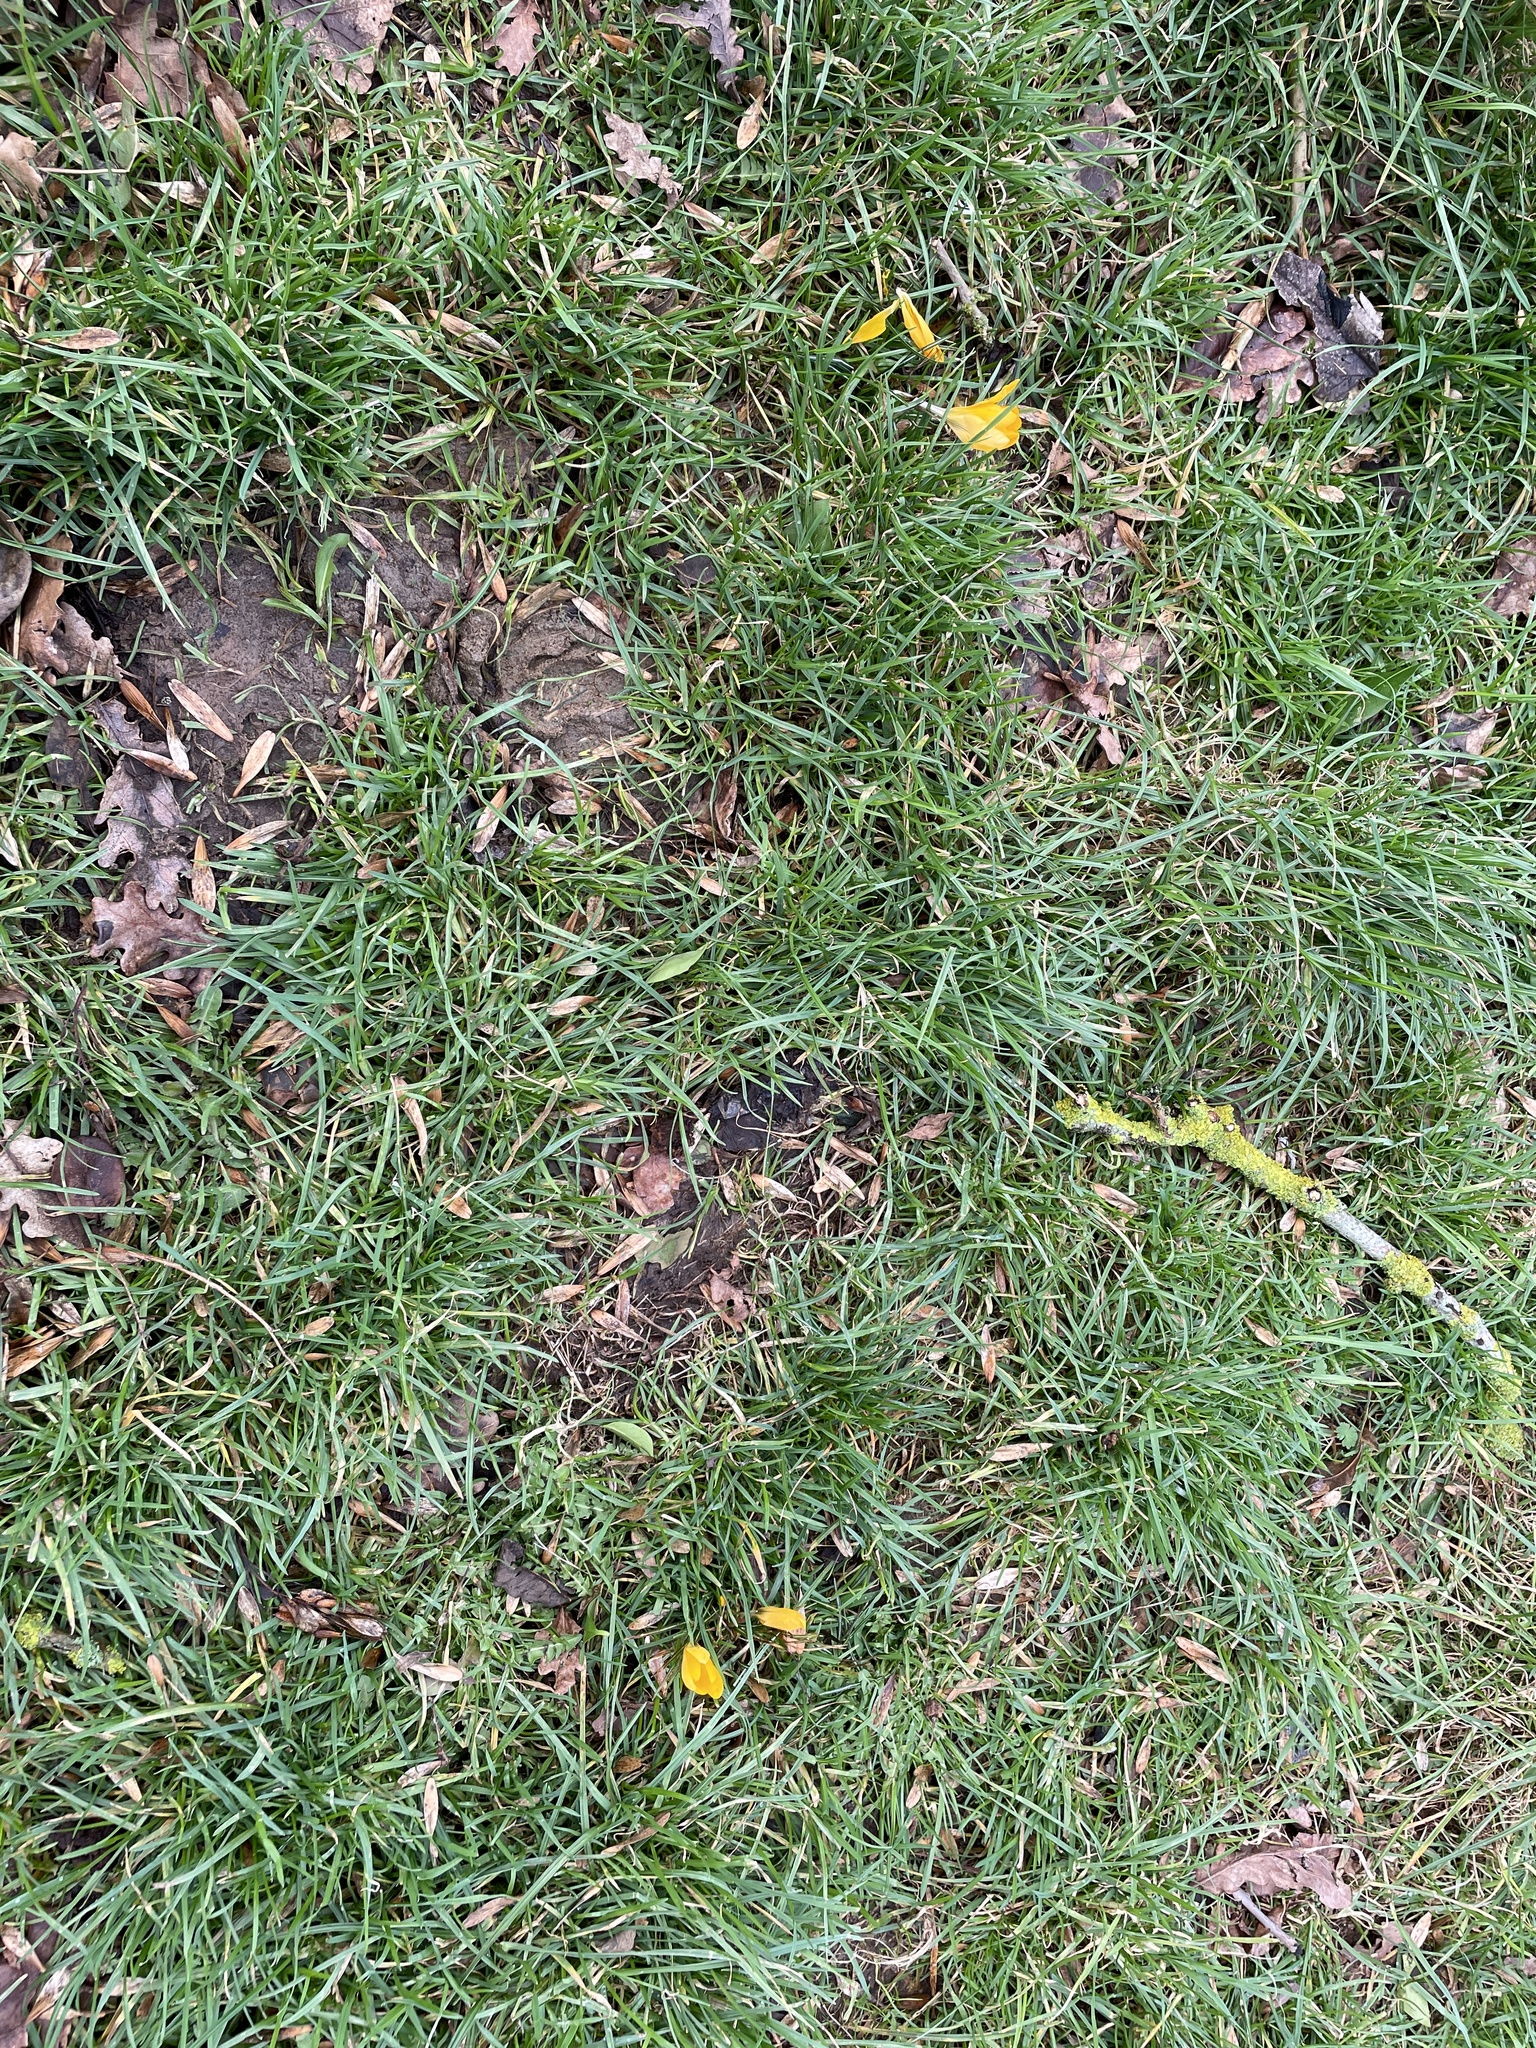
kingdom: Plantae
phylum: Tracheophyta
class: Liliopsida
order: Asparagales
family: Iridaceae
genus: Crocus
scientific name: Crocus luteus
